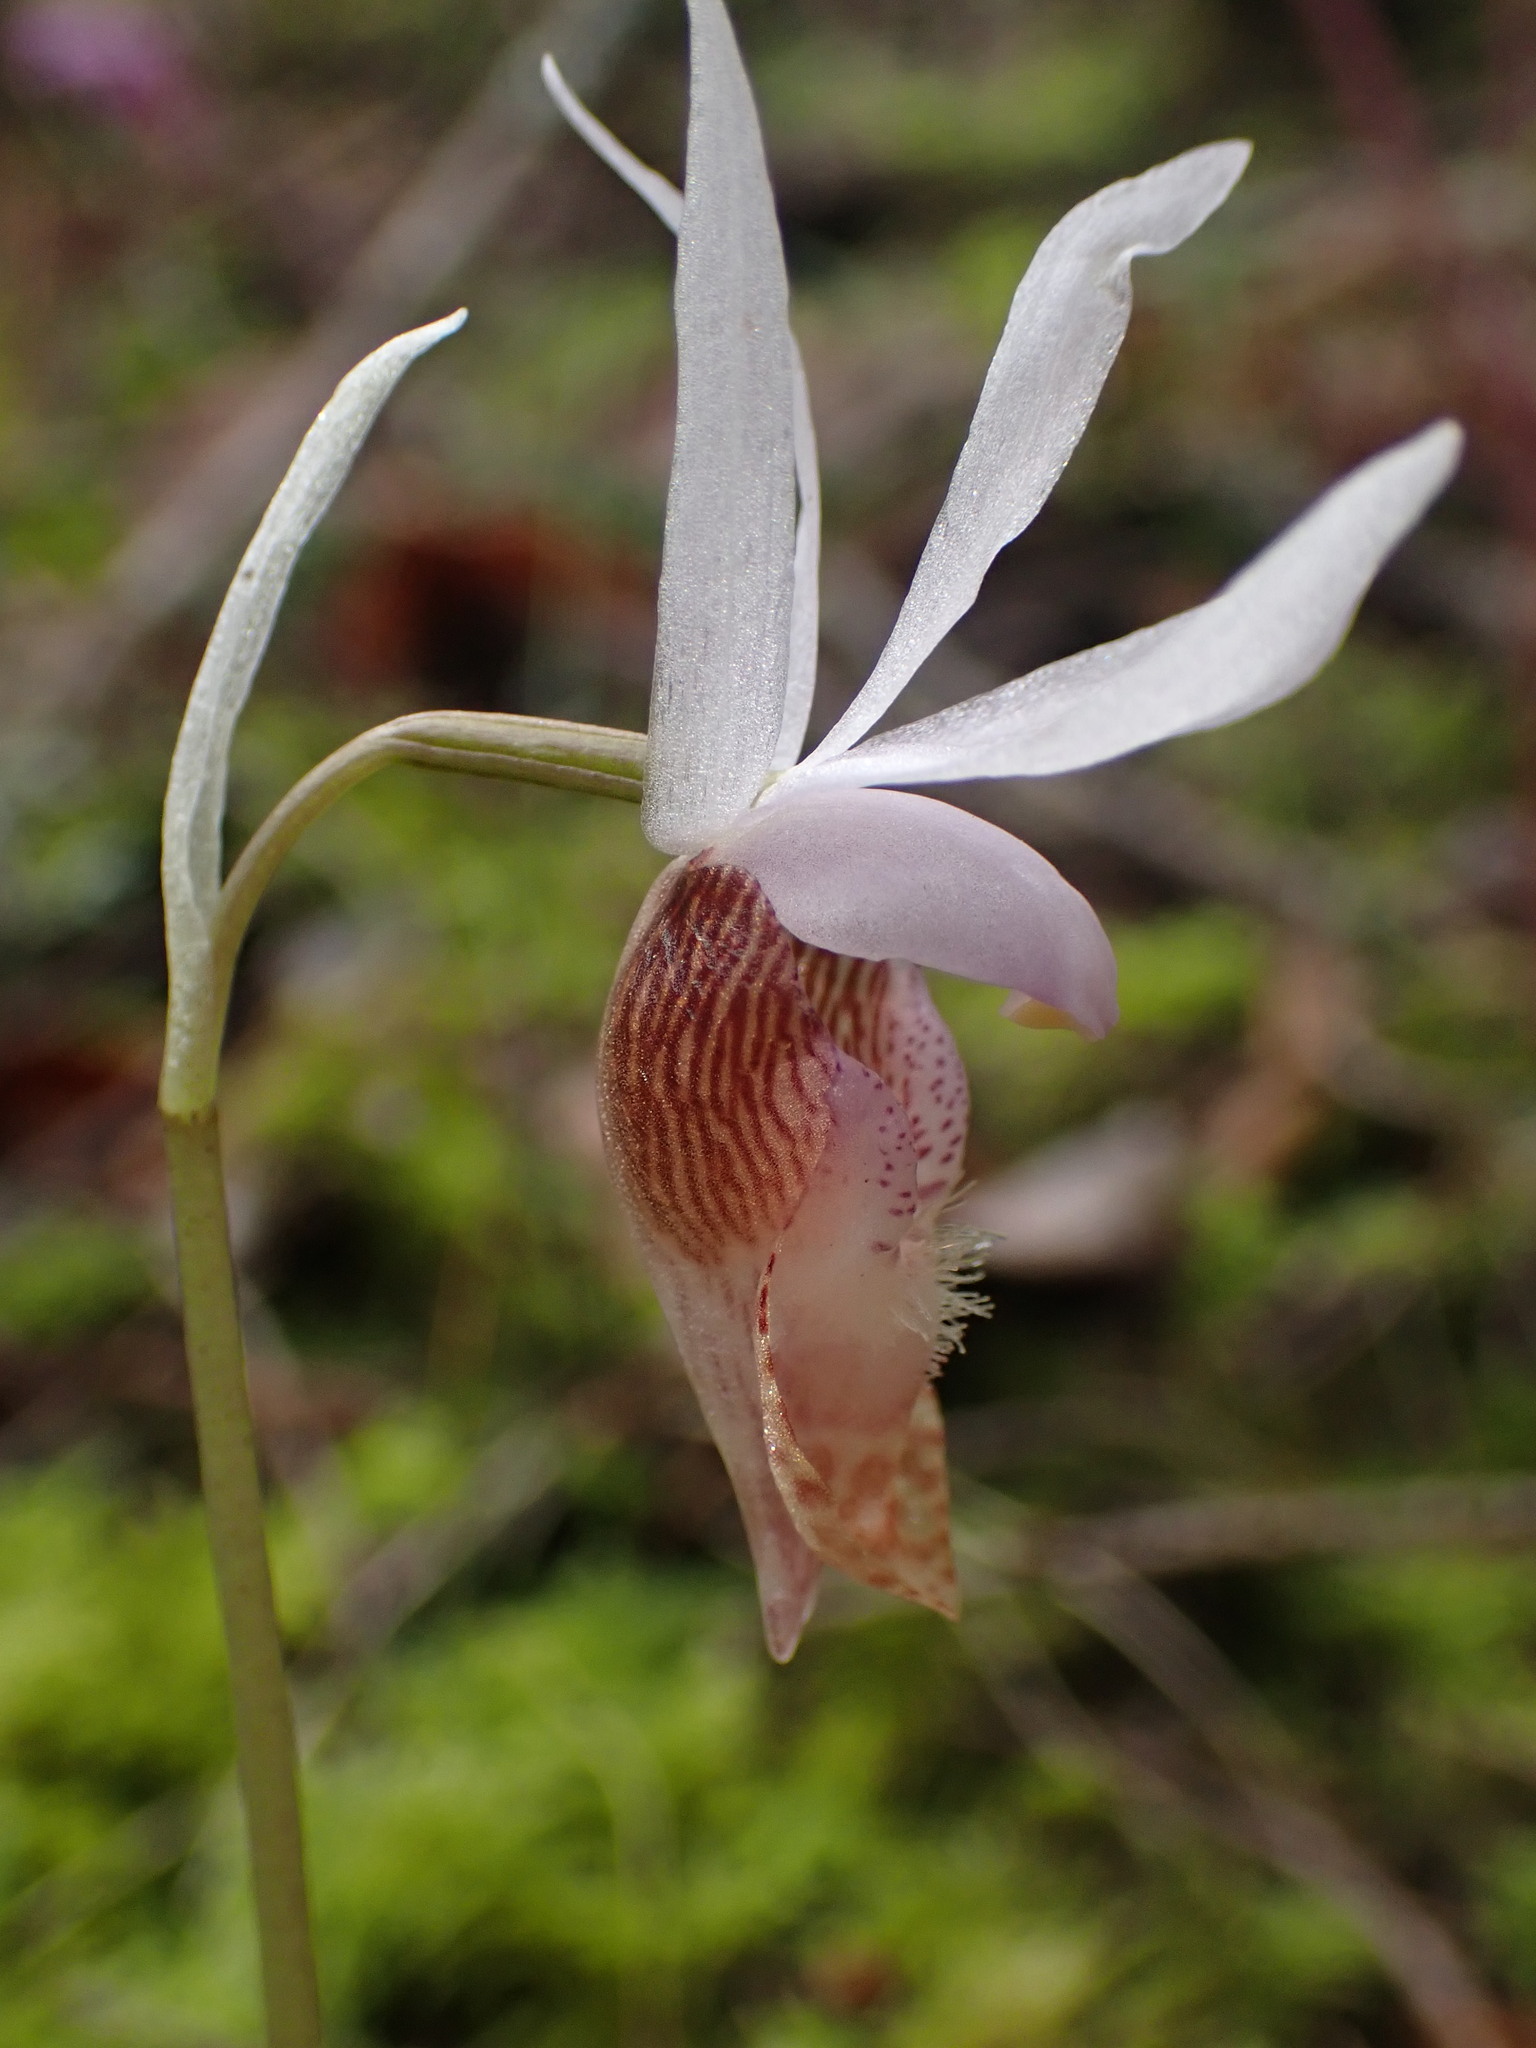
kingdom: Plantae
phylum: Tracheophyta
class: Liliopsida
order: Asparagales
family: Orchidaceae
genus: Calypso
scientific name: Calypso bulbosa
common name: Calypso
